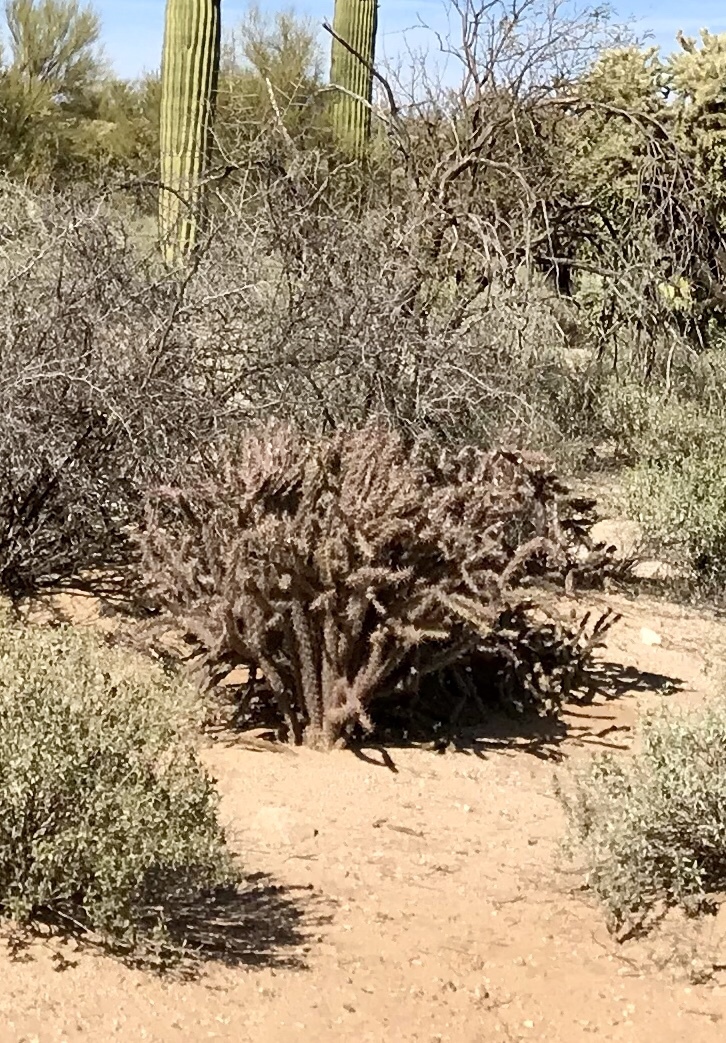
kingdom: Plantae
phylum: Tracheophyta
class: Magnoliopsida
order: Caryophyllales
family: Cactaceae
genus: Cylindropuntia
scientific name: Cylindropuntia acanthocarpa
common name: Buckhorn cholla
